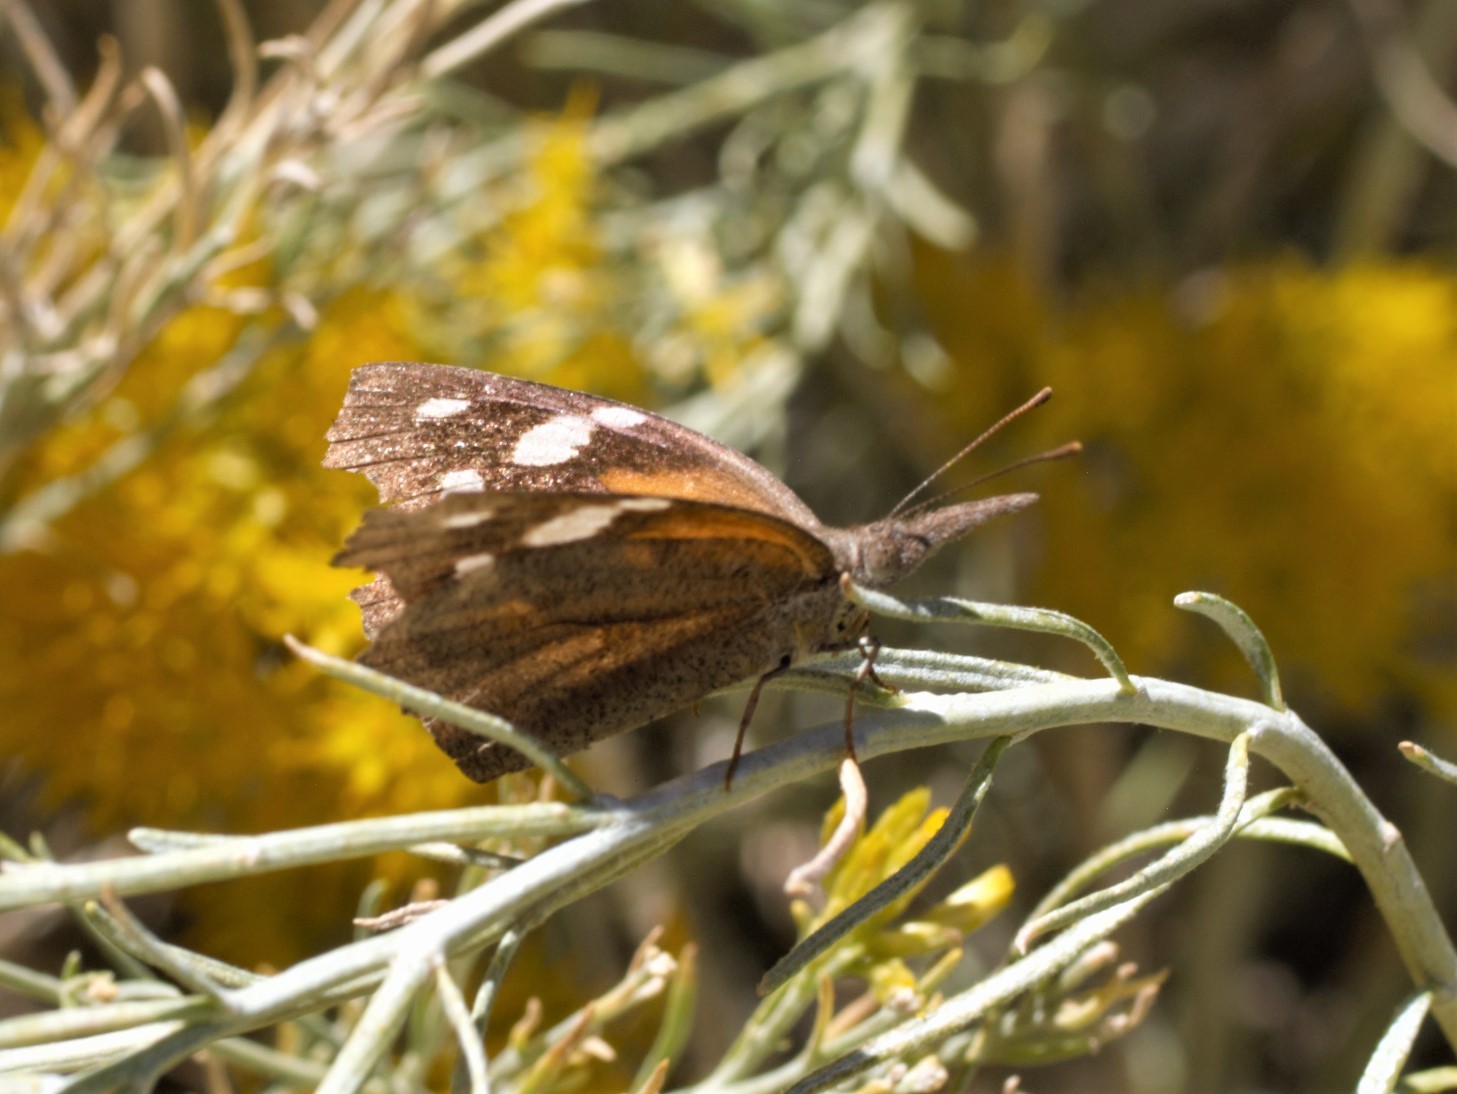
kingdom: Animalia
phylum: Arthropoda
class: Insecta
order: Lepidoptera
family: Nymphalidae
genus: Libytheana
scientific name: Libytheana carinenta
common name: American snout
